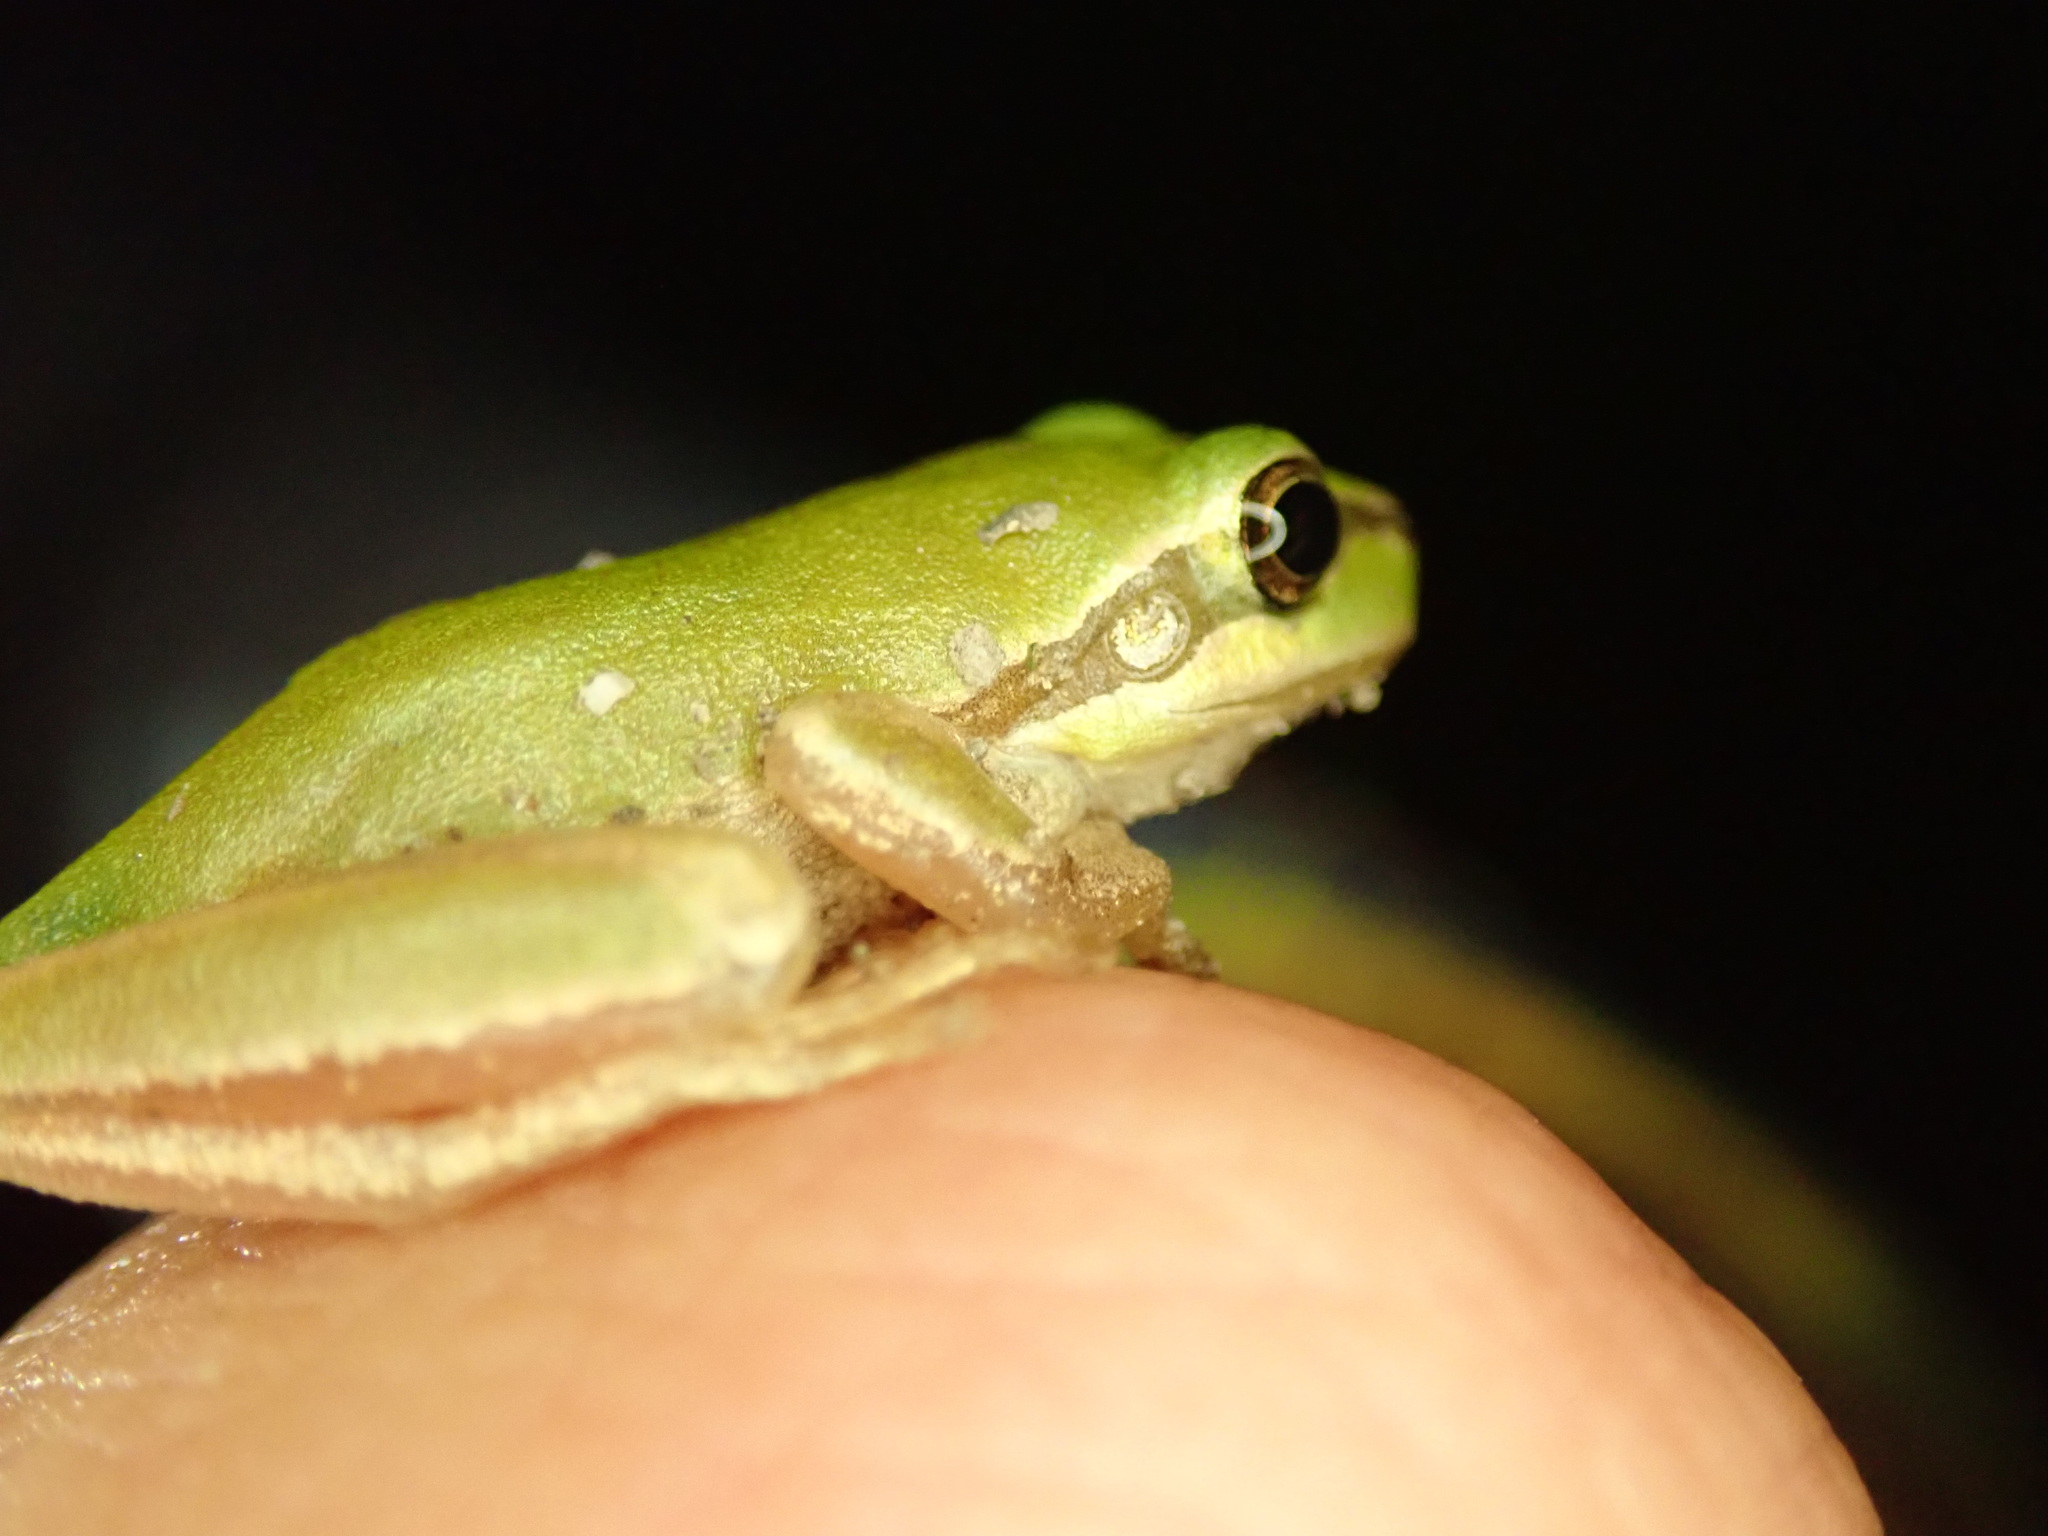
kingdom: Animalia
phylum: Chordata
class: Amphibia
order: Anura
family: Hylidae
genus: Hyla
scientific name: Hyla meridionalis
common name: Stripeless tree frog
